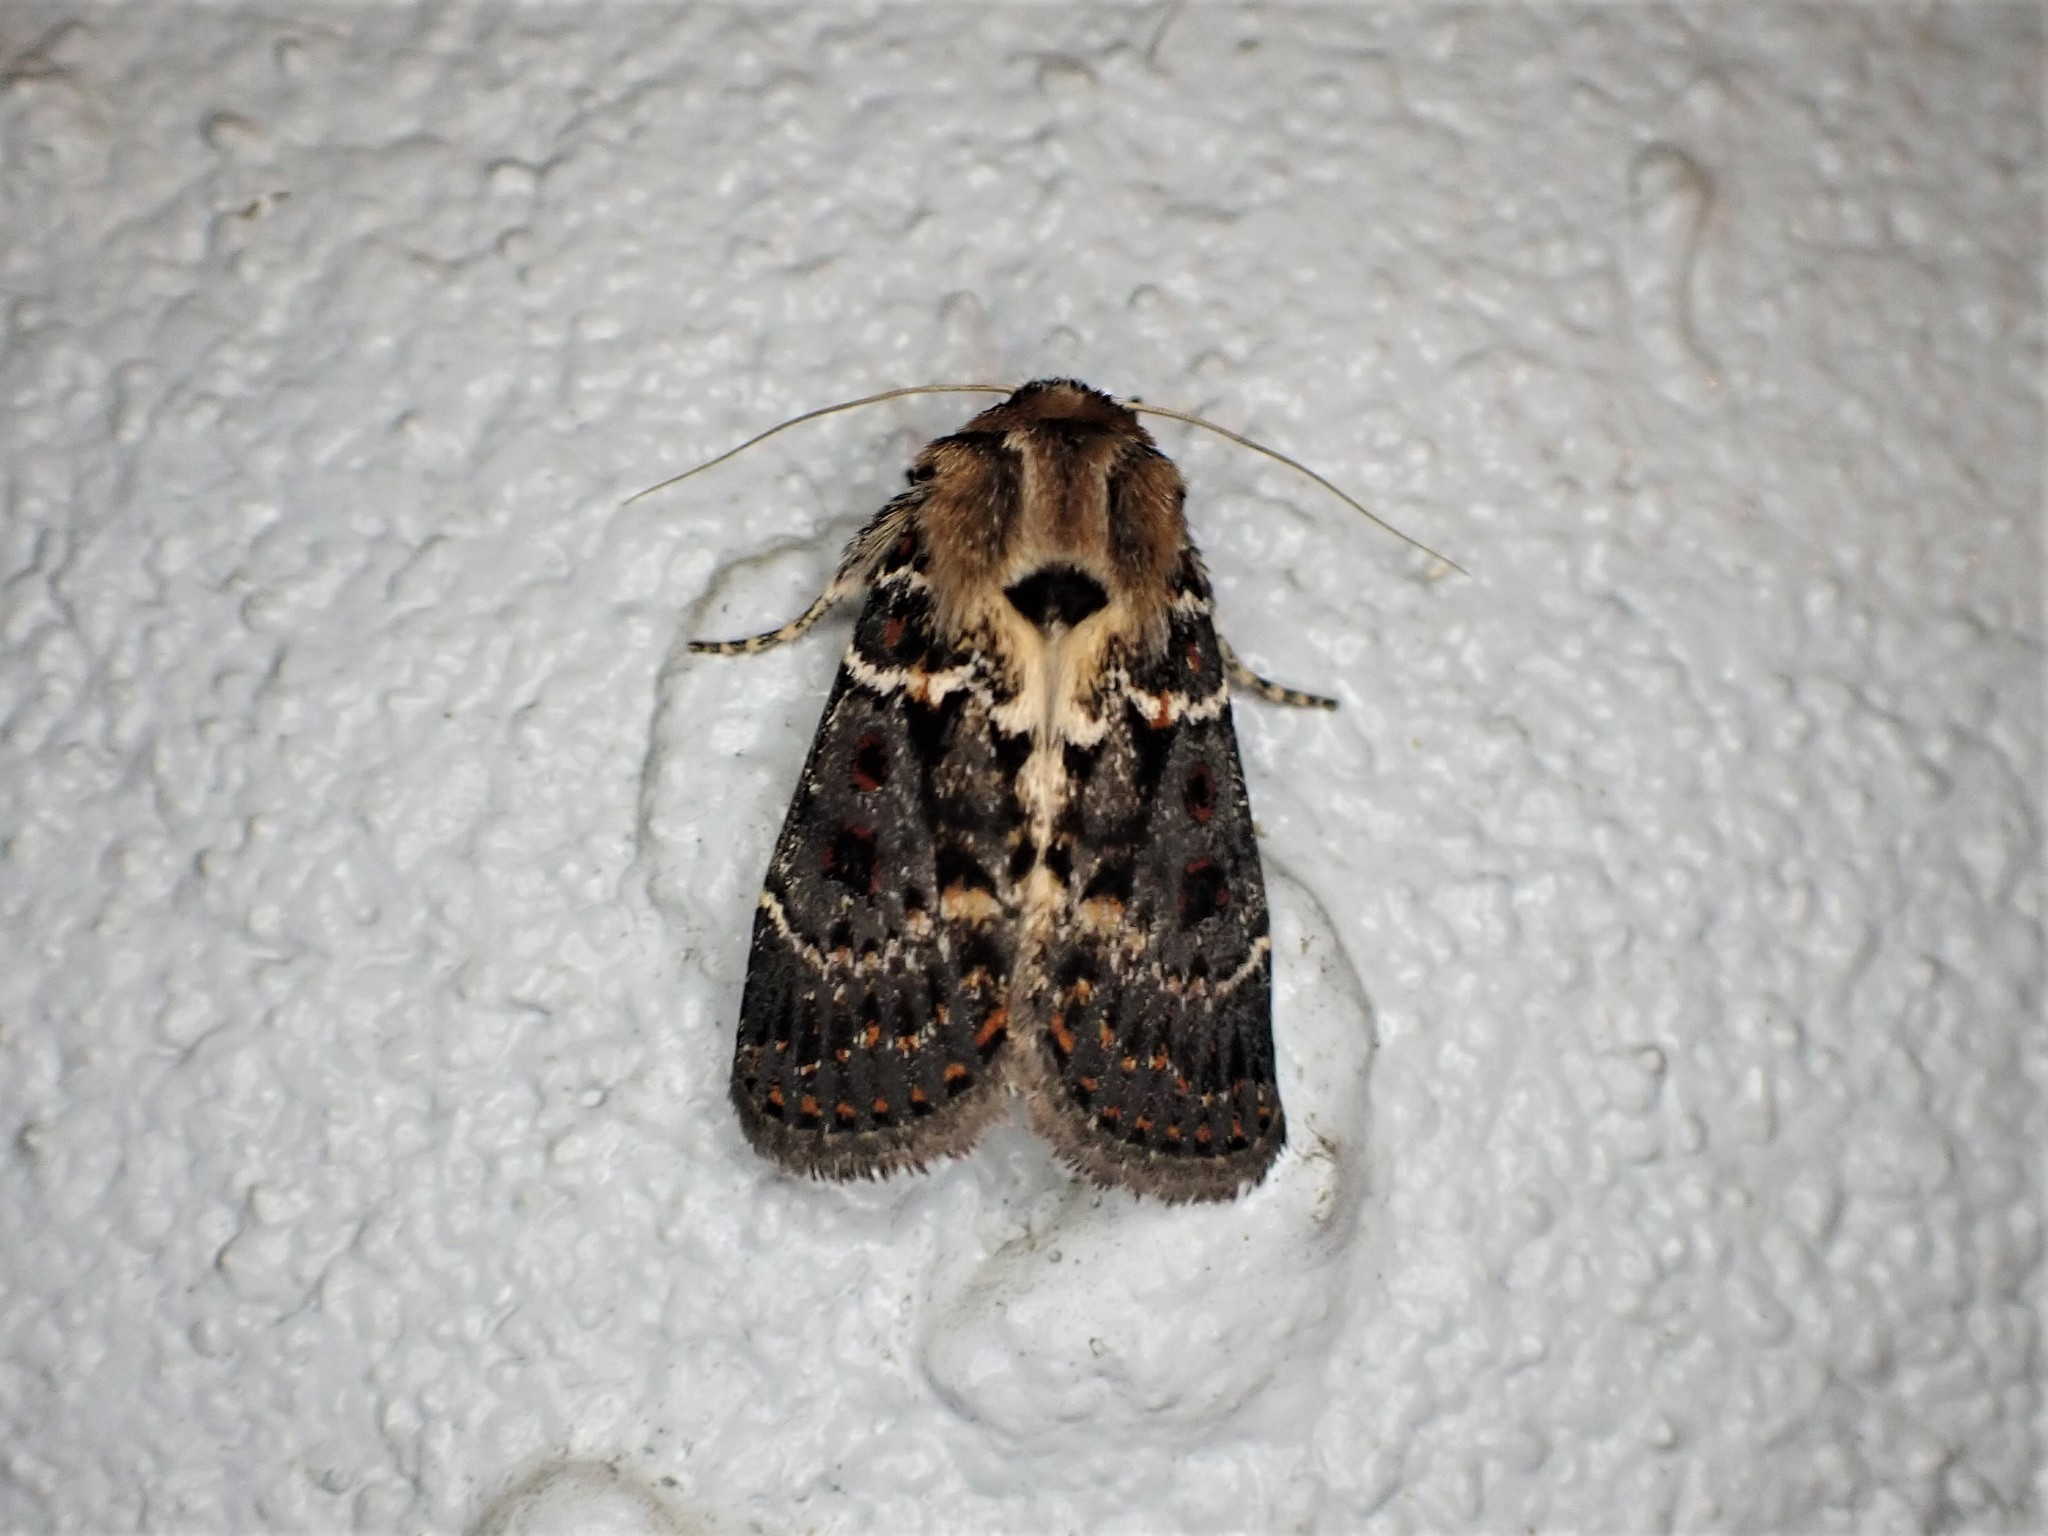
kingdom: Animalia
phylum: Arthropoda
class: Insecta
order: Lepidoptera
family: Noctuidae
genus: Proteuxoa
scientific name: Proteuxoa sanguinipuncta
